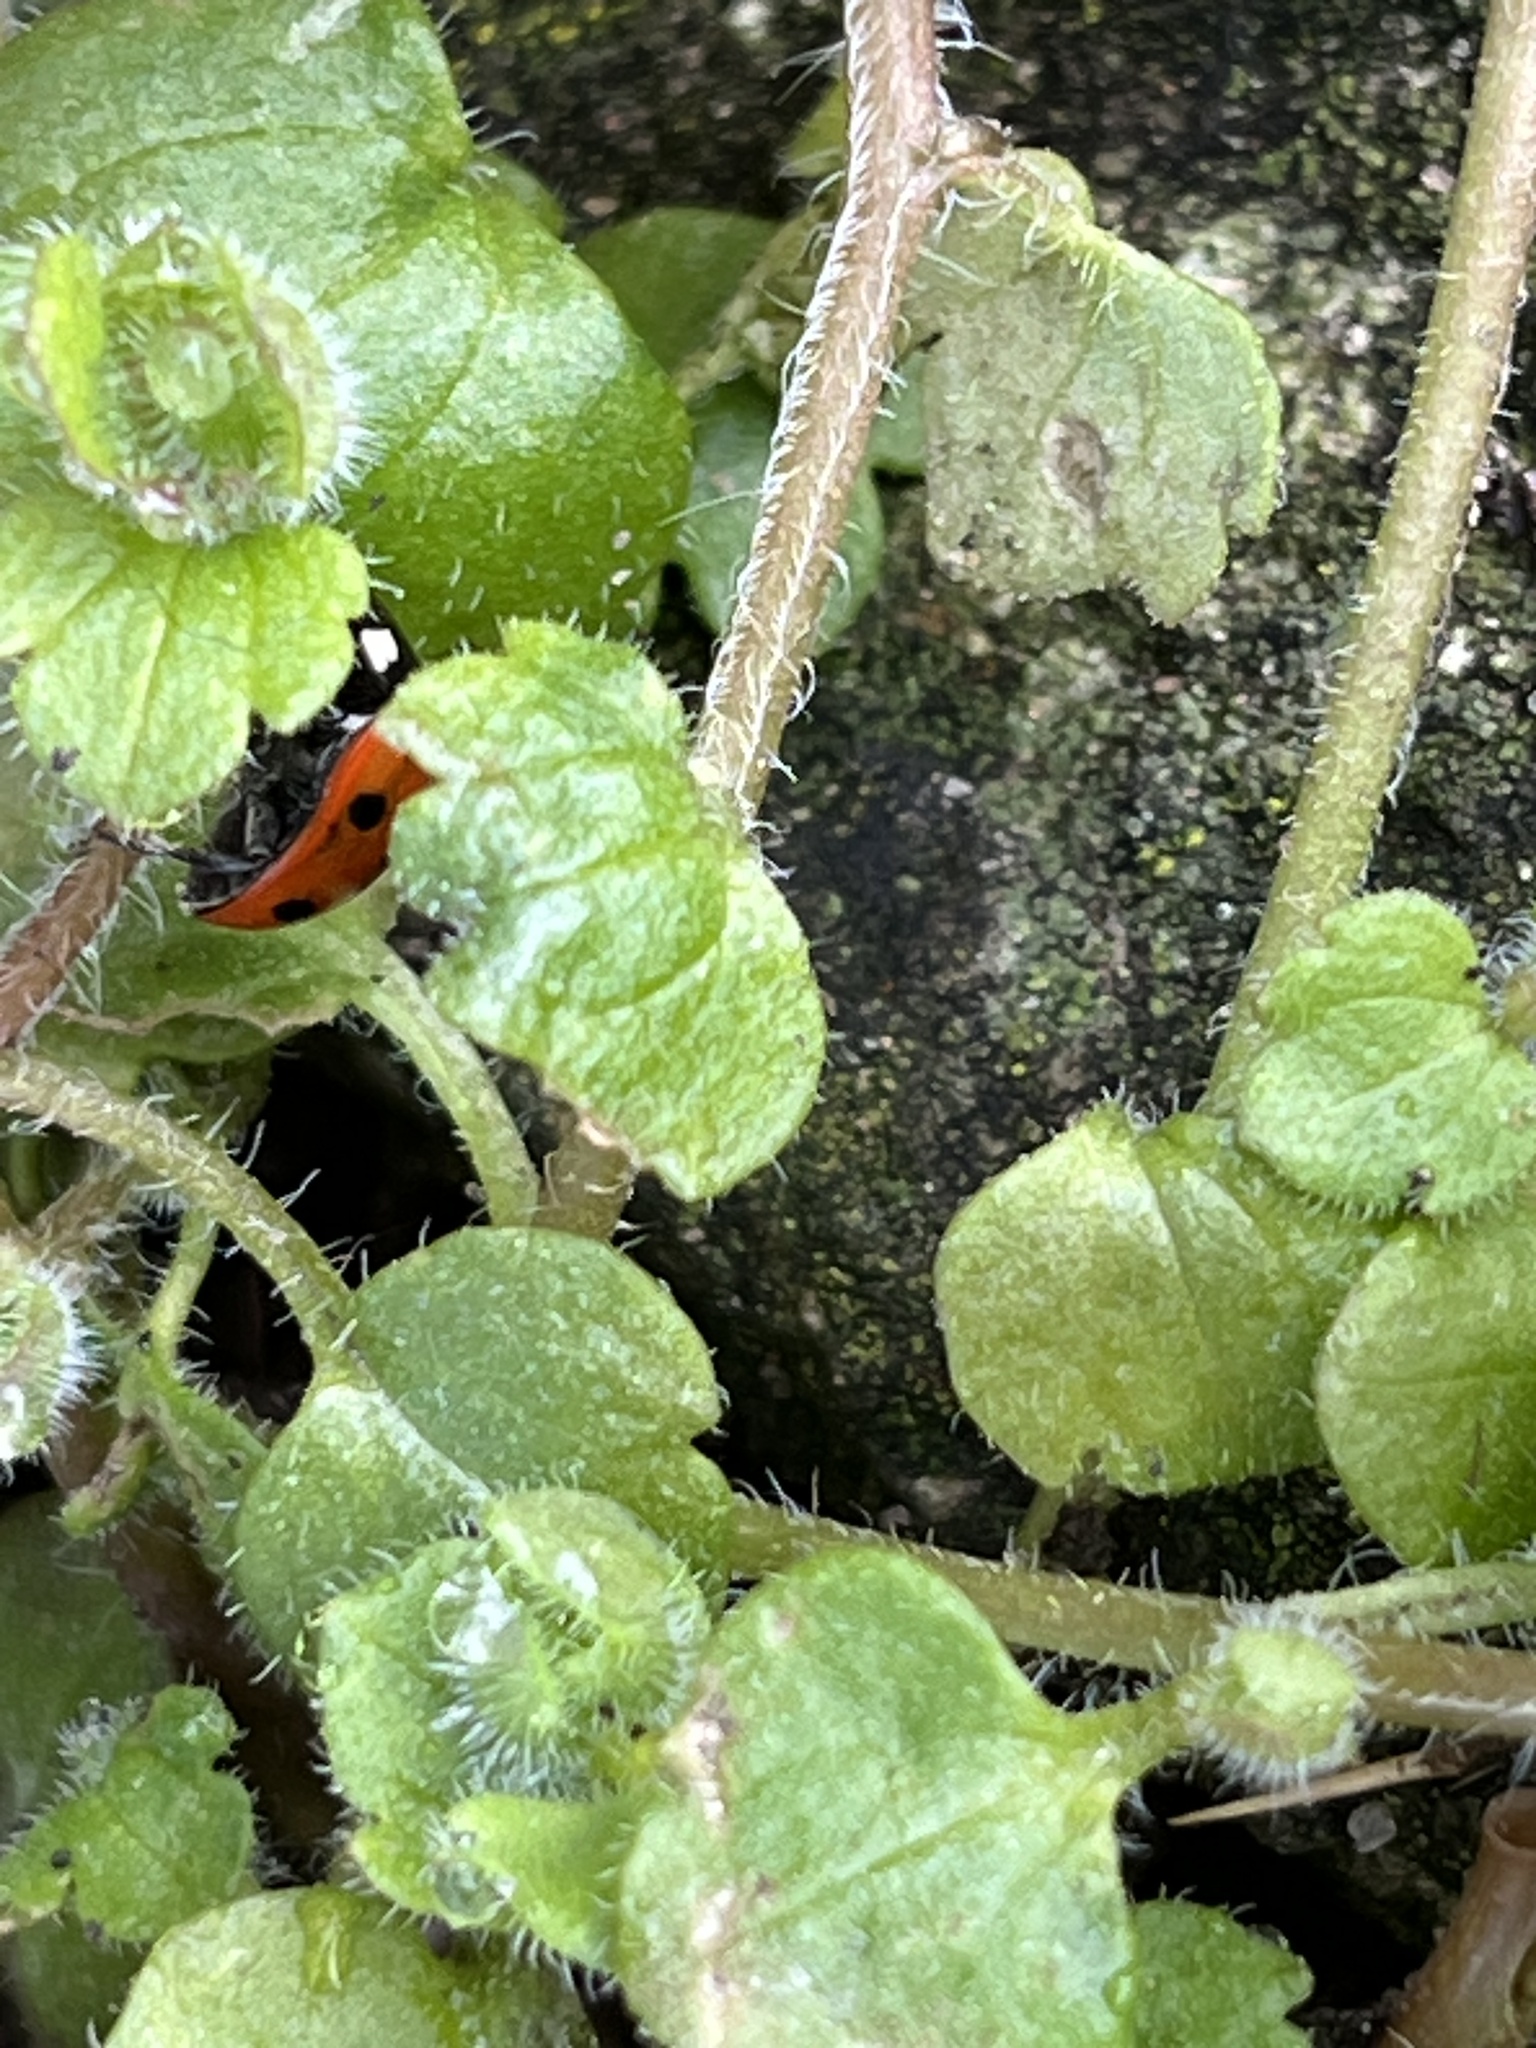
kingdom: Animalia
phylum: Arthropoda
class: Insecta
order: Coleoptera
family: Coccinellidae
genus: Coccinella
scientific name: Coccinella septempunctata
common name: Sevenspotted lady beetle
